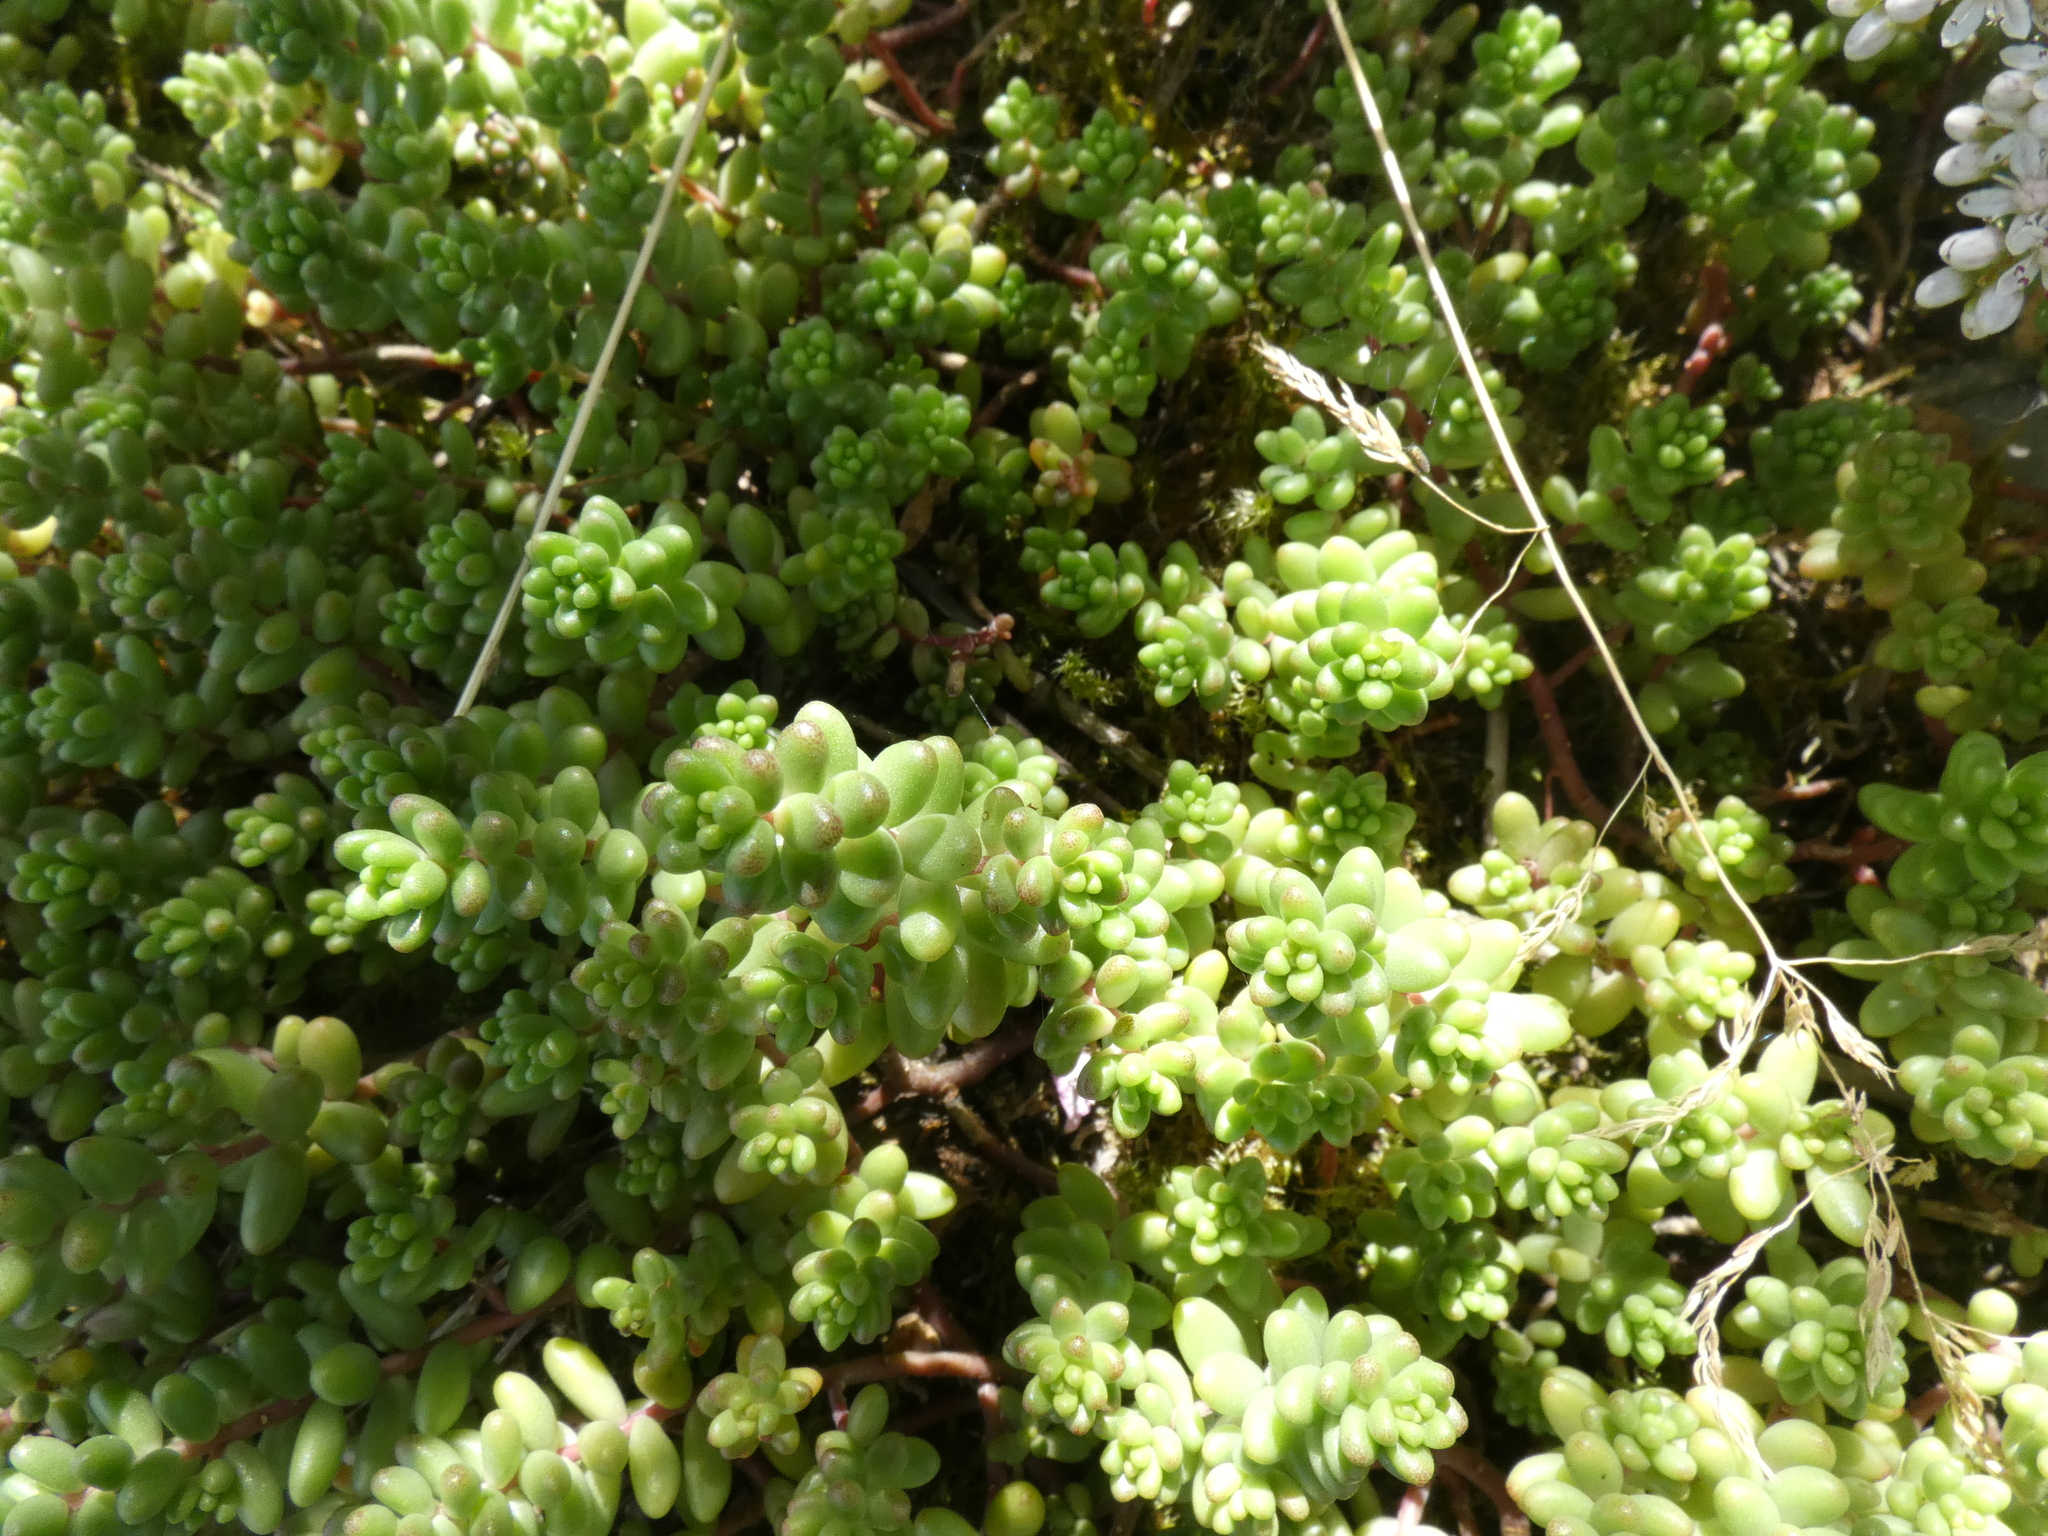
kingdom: Plantae
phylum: Tracheophyta
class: Magnoliopsida
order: Saxifragales
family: Crassulaceae
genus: Sedum
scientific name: Sedum album
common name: White stonecrop
